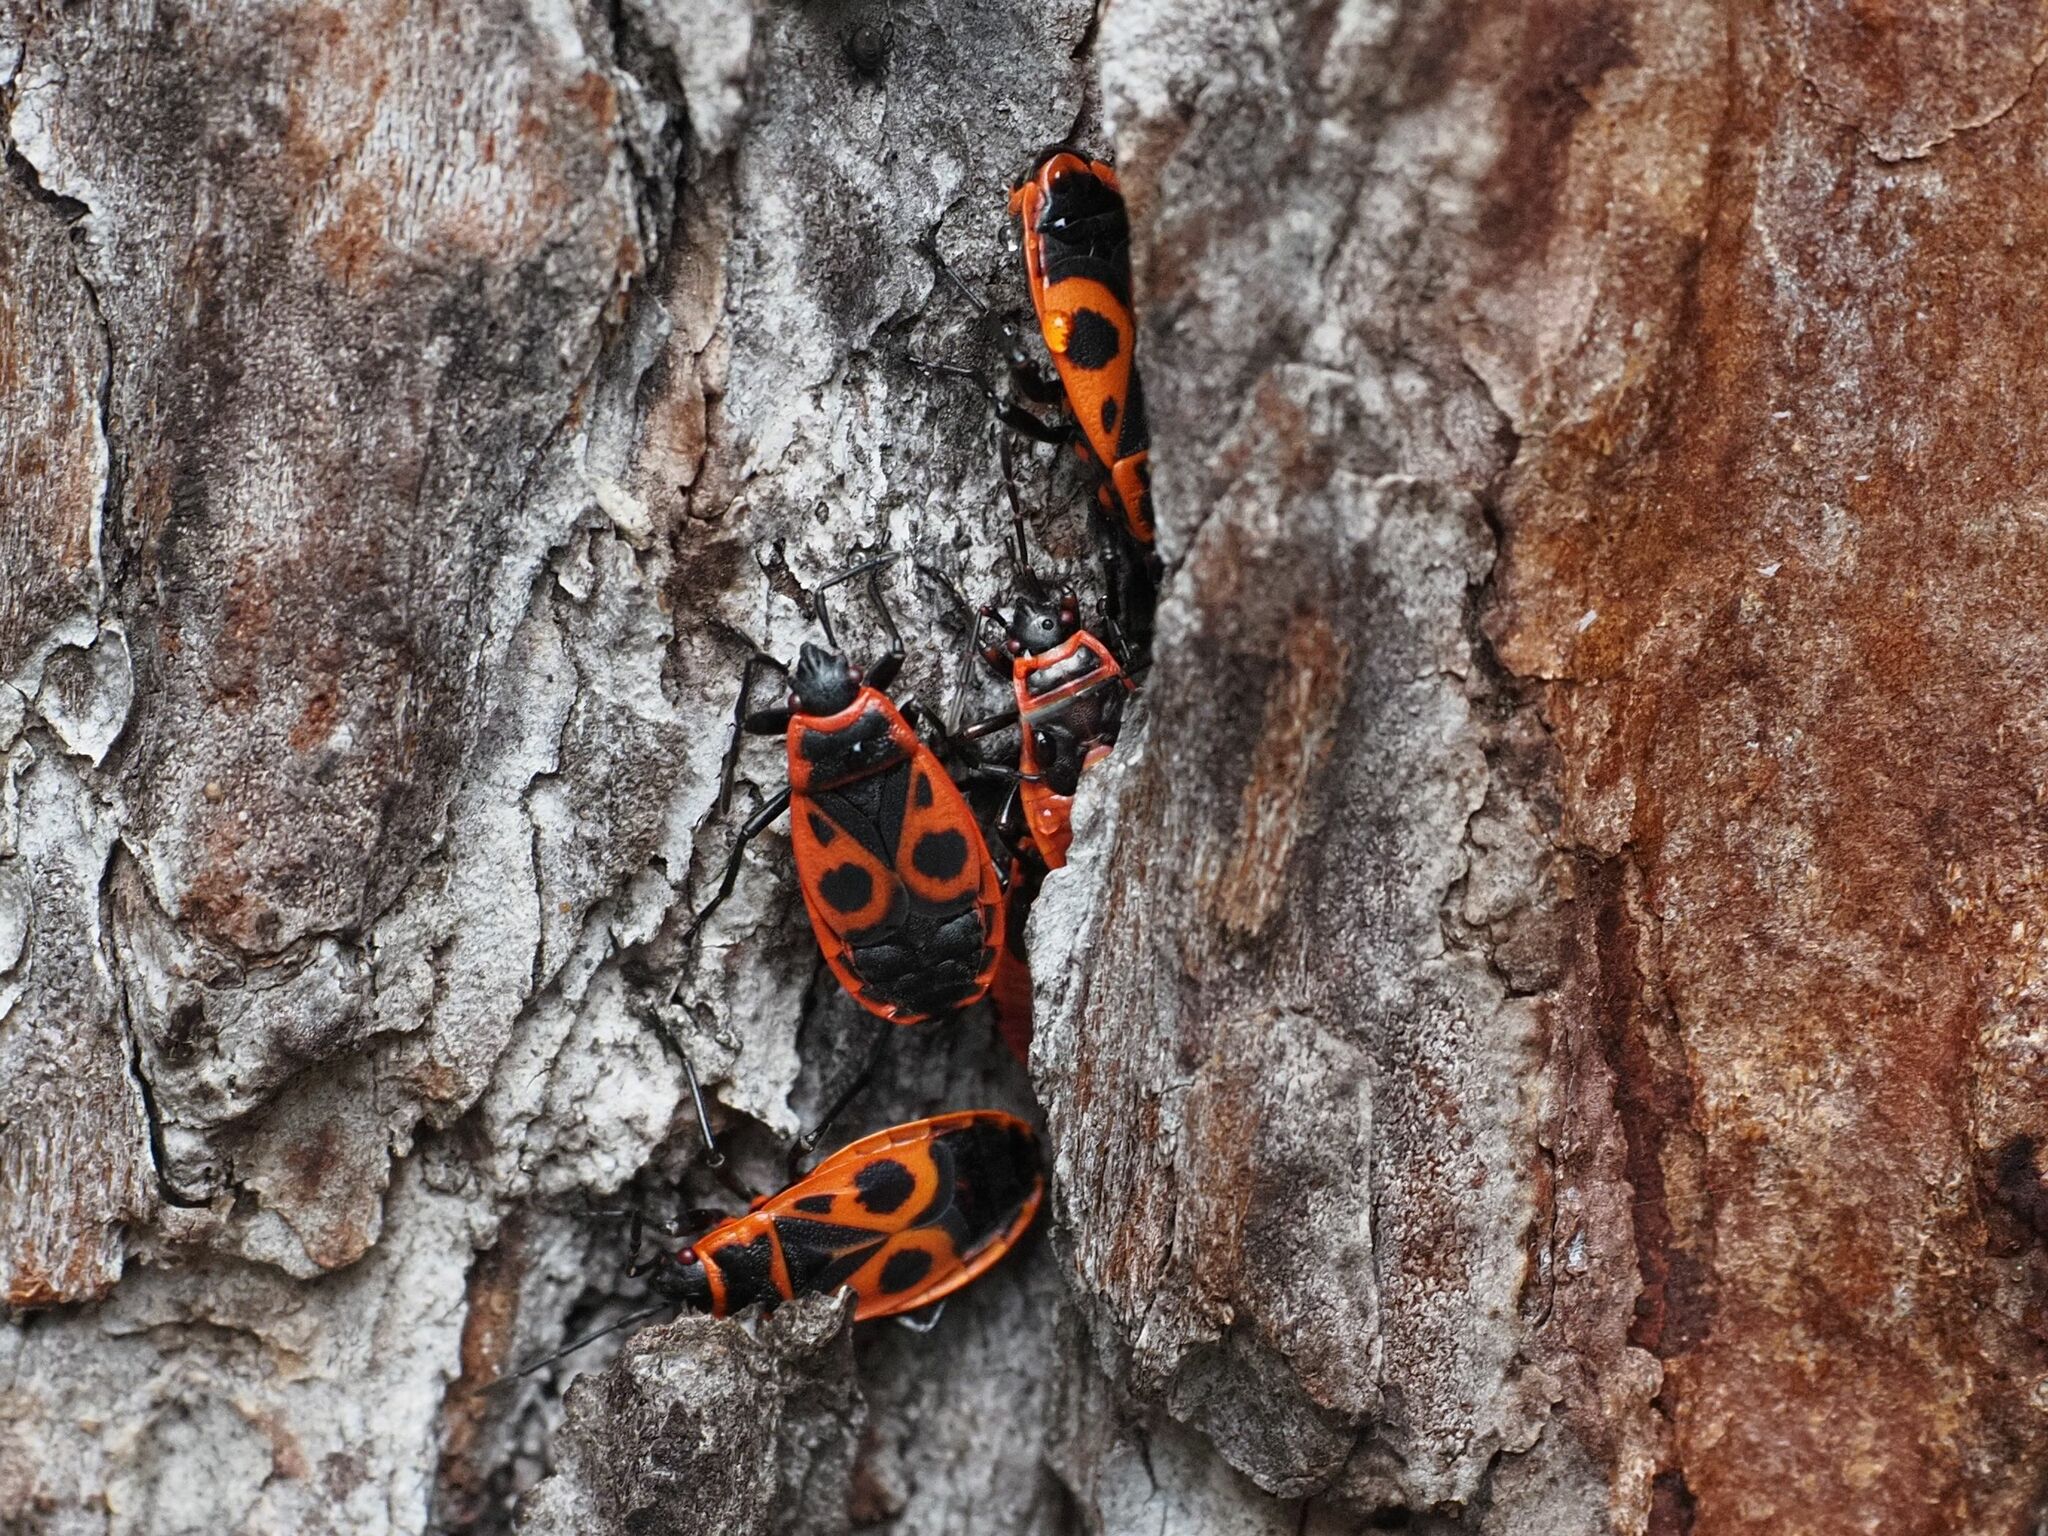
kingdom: Animalia
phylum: Arthropoda
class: Insecta
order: Hemiptera
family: Pyrrhocoridae
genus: Pyrrhocoris
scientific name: Pyrrhocoris apterus
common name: Firebug
